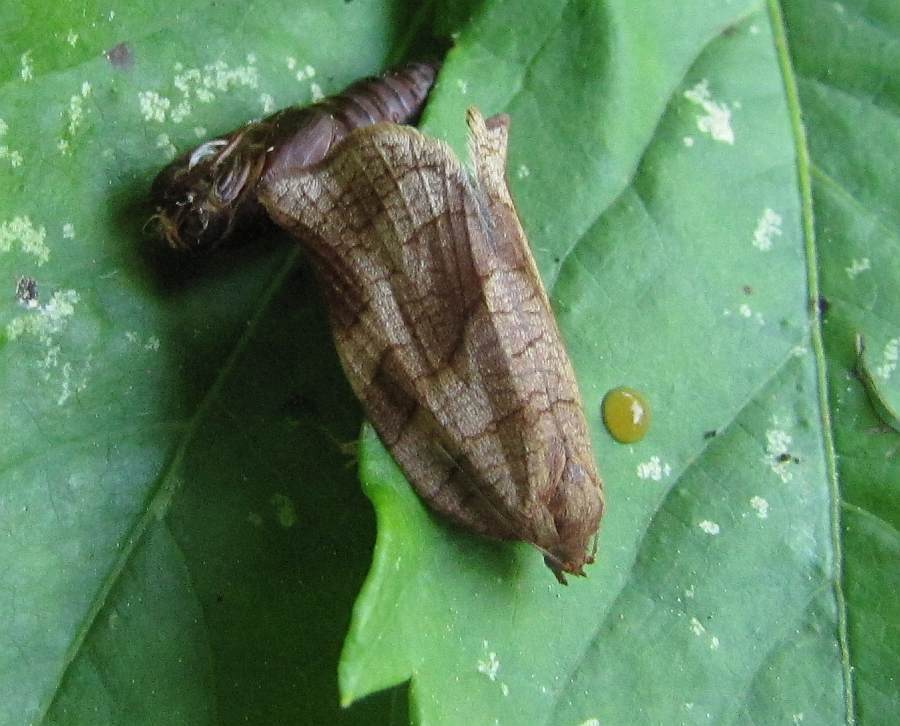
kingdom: Animalia
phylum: Arthropoda
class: Insecta
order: Lepidoptera
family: Tortricidae
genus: Choristoneura
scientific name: Choristoneura rosaceana
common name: Oblique-banded leafroller moth
